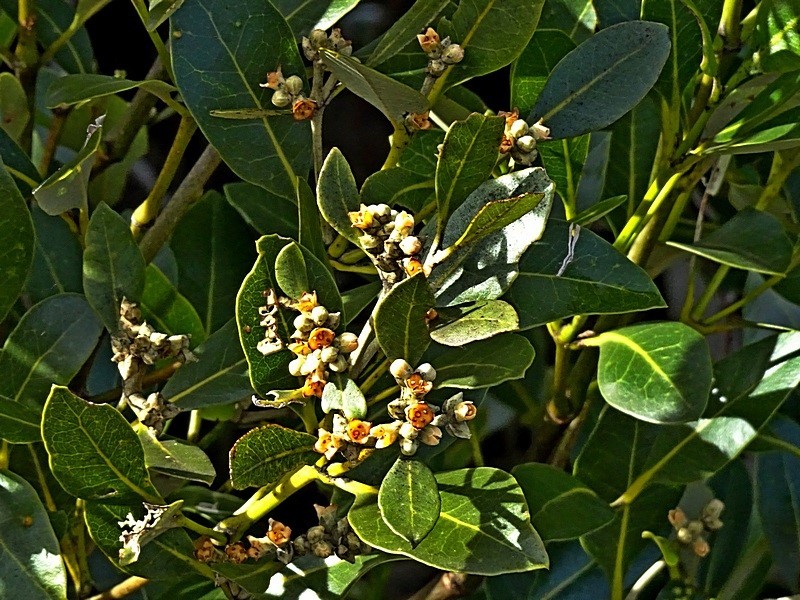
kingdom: Plantae
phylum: Tracheophyta
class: Magnoliopsida
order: Lamiales
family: Acanthaceae
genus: Avicennia
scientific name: Avicennia marina
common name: Gray mangrove
